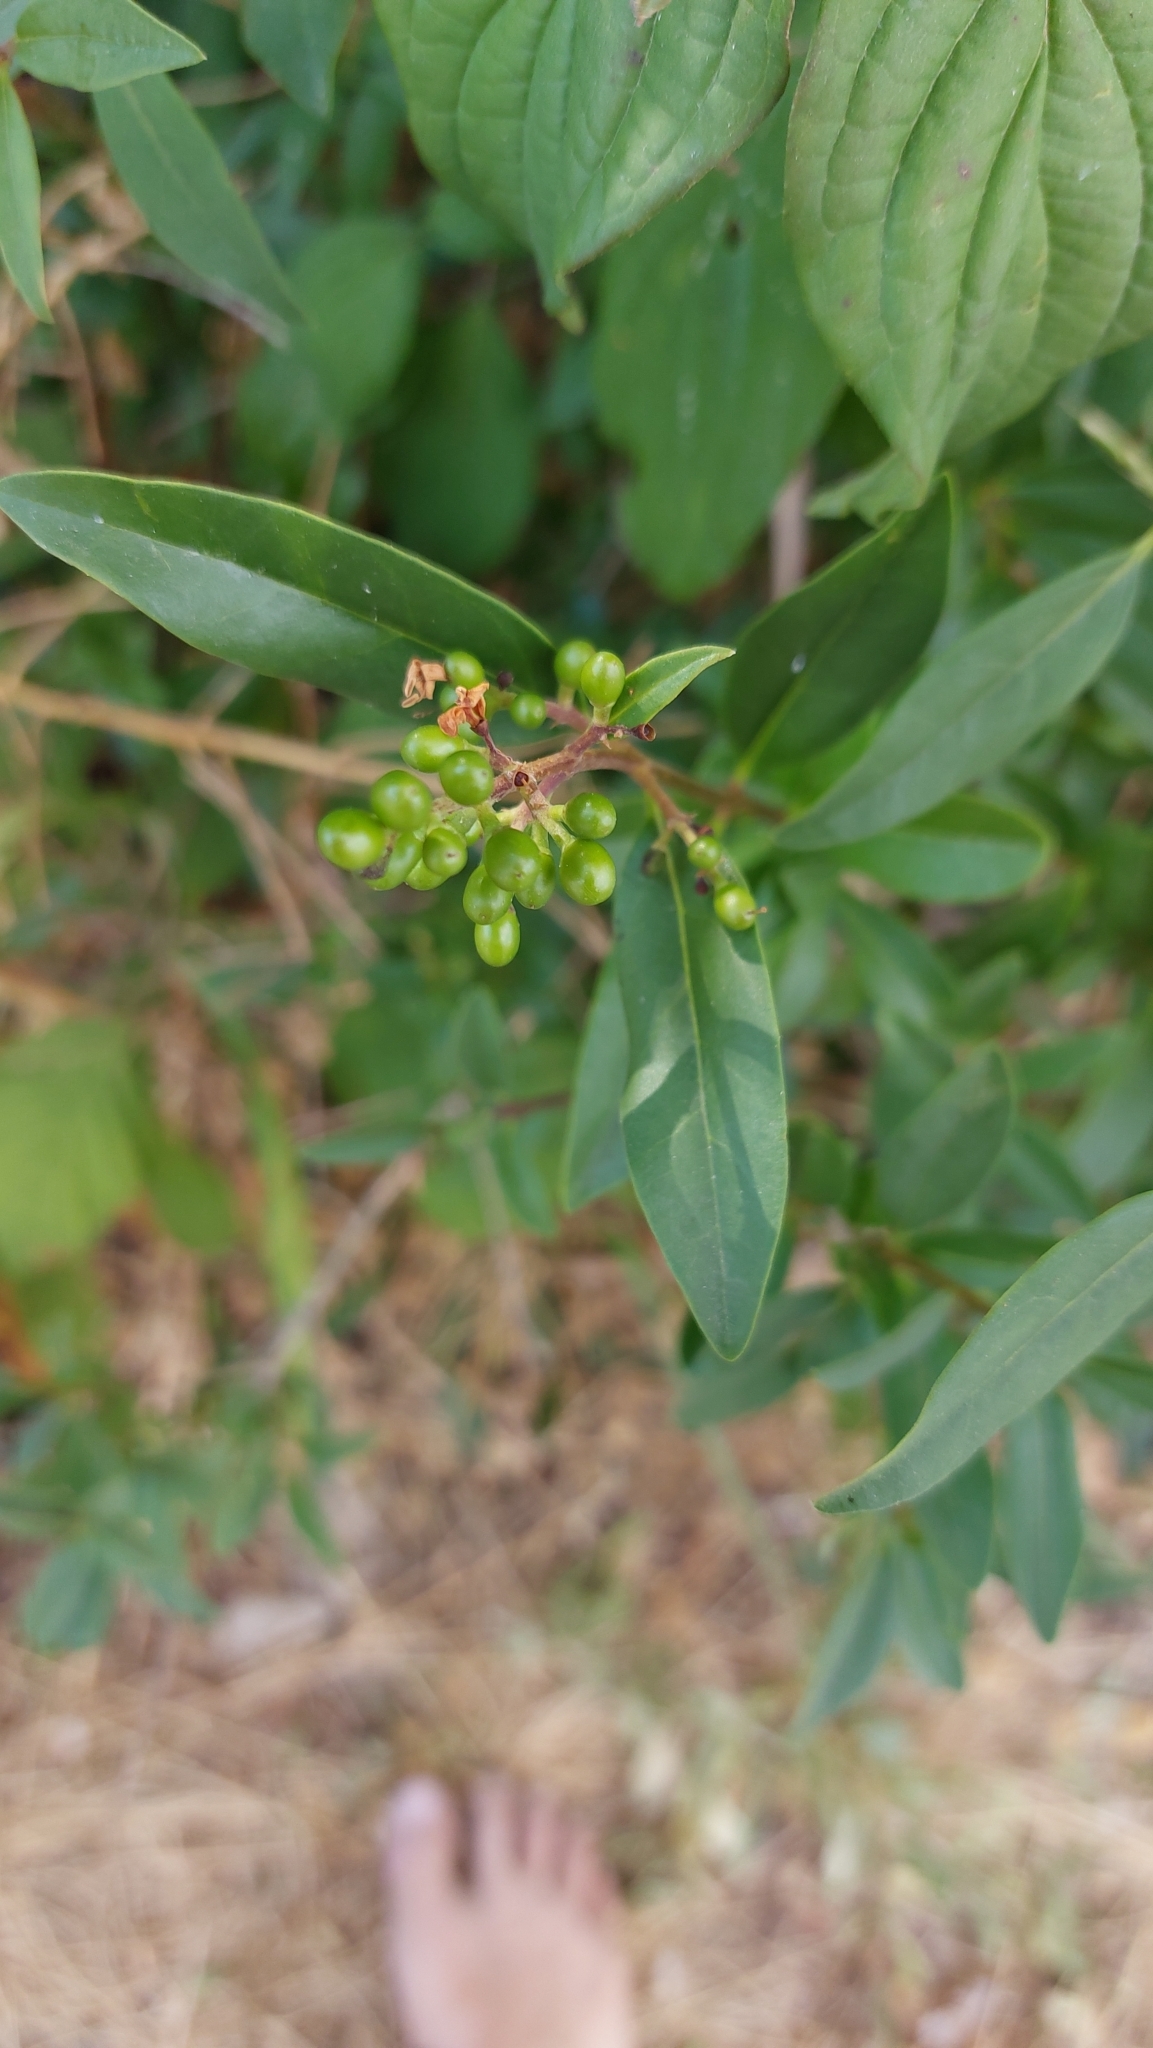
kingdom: Plantae
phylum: Tracheophyta
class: Magnoliopsida
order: Lamiales
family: Oleaceae
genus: Ligustrum
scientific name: Ligustrum vulgare
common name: Wild privet
